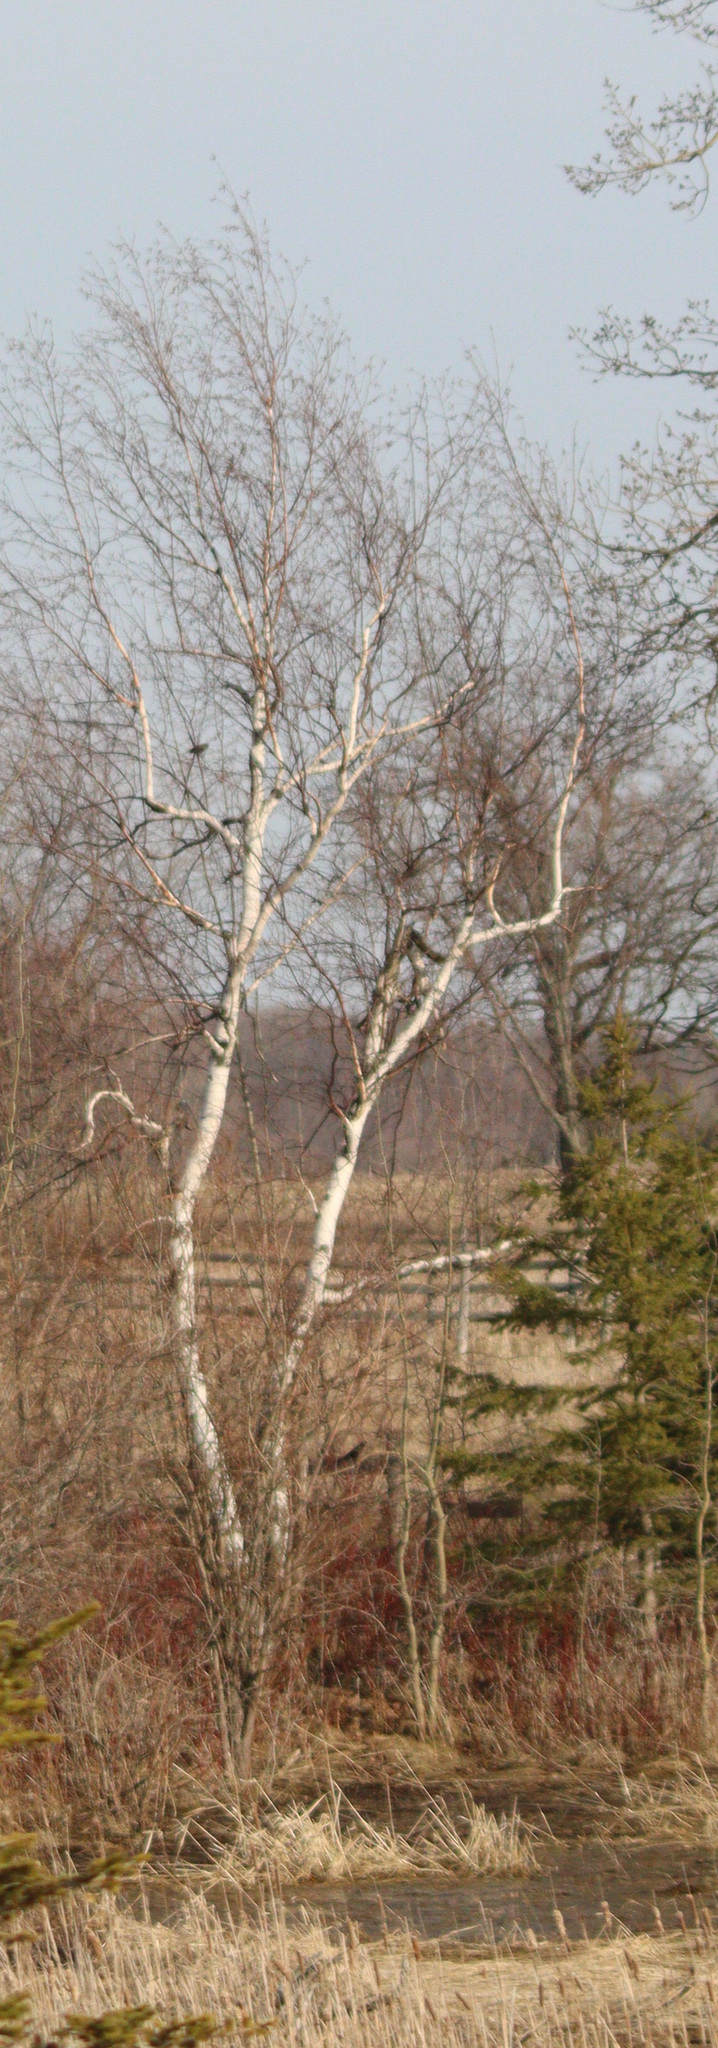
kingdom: Plantae
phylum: Tracheophyta
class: Magnoliopsida
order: Fagales
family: Betulaceae
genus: Betula
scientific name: Betula papyrifera
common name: Paper birch
